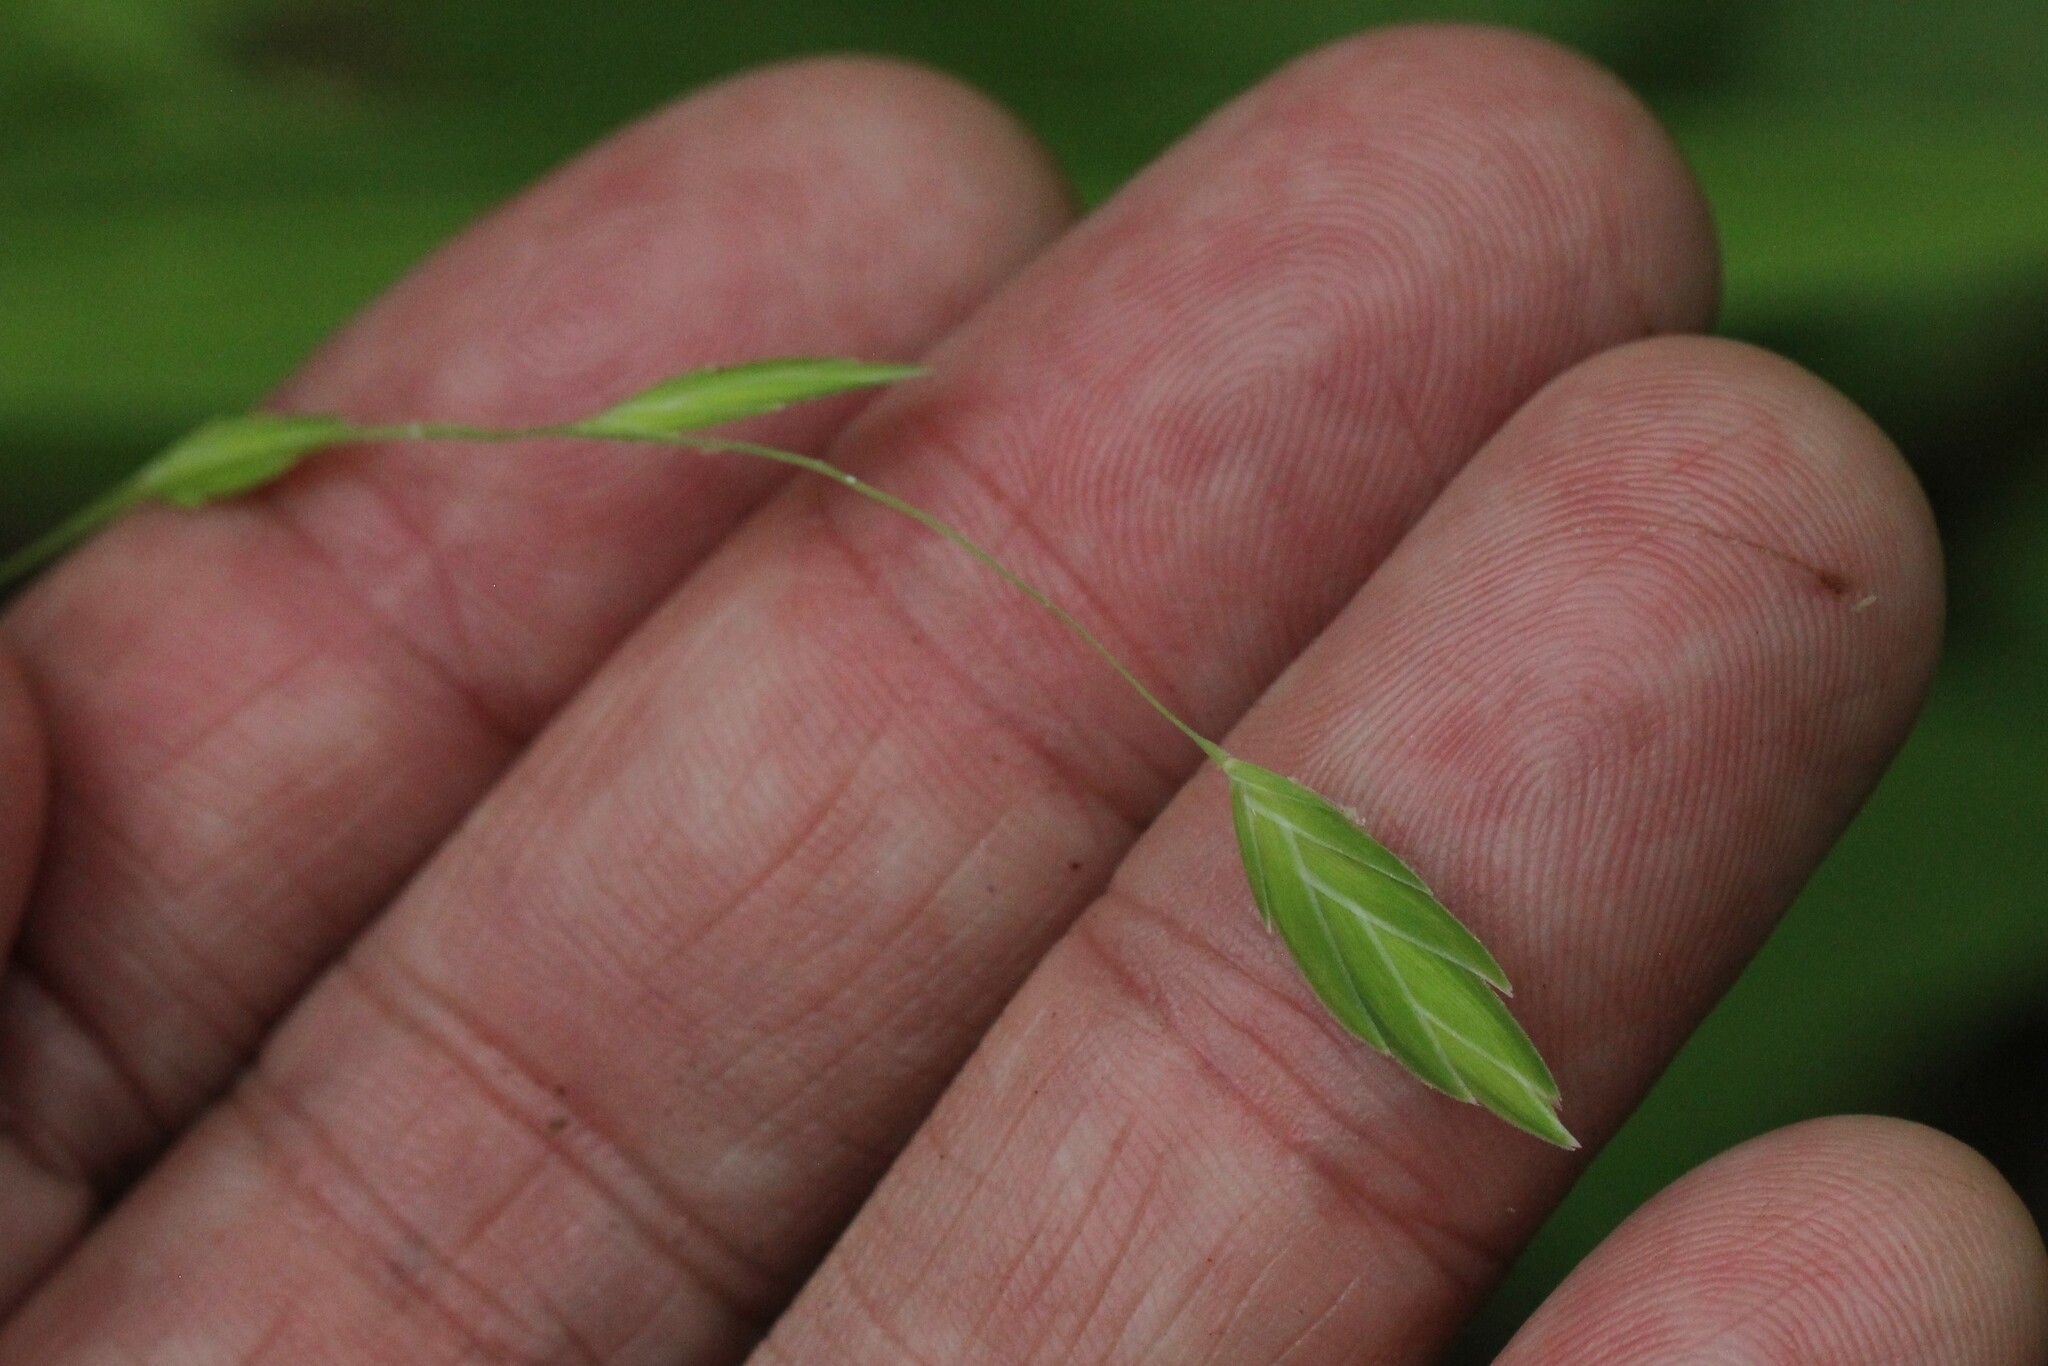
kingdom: Plantae
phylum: Tracheophyta
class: Liliopsida
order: Poales
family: Poaceae
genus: Chasmanthium
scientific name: Chasmanthium latifolium
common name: Broad-leaved chasmanthium
